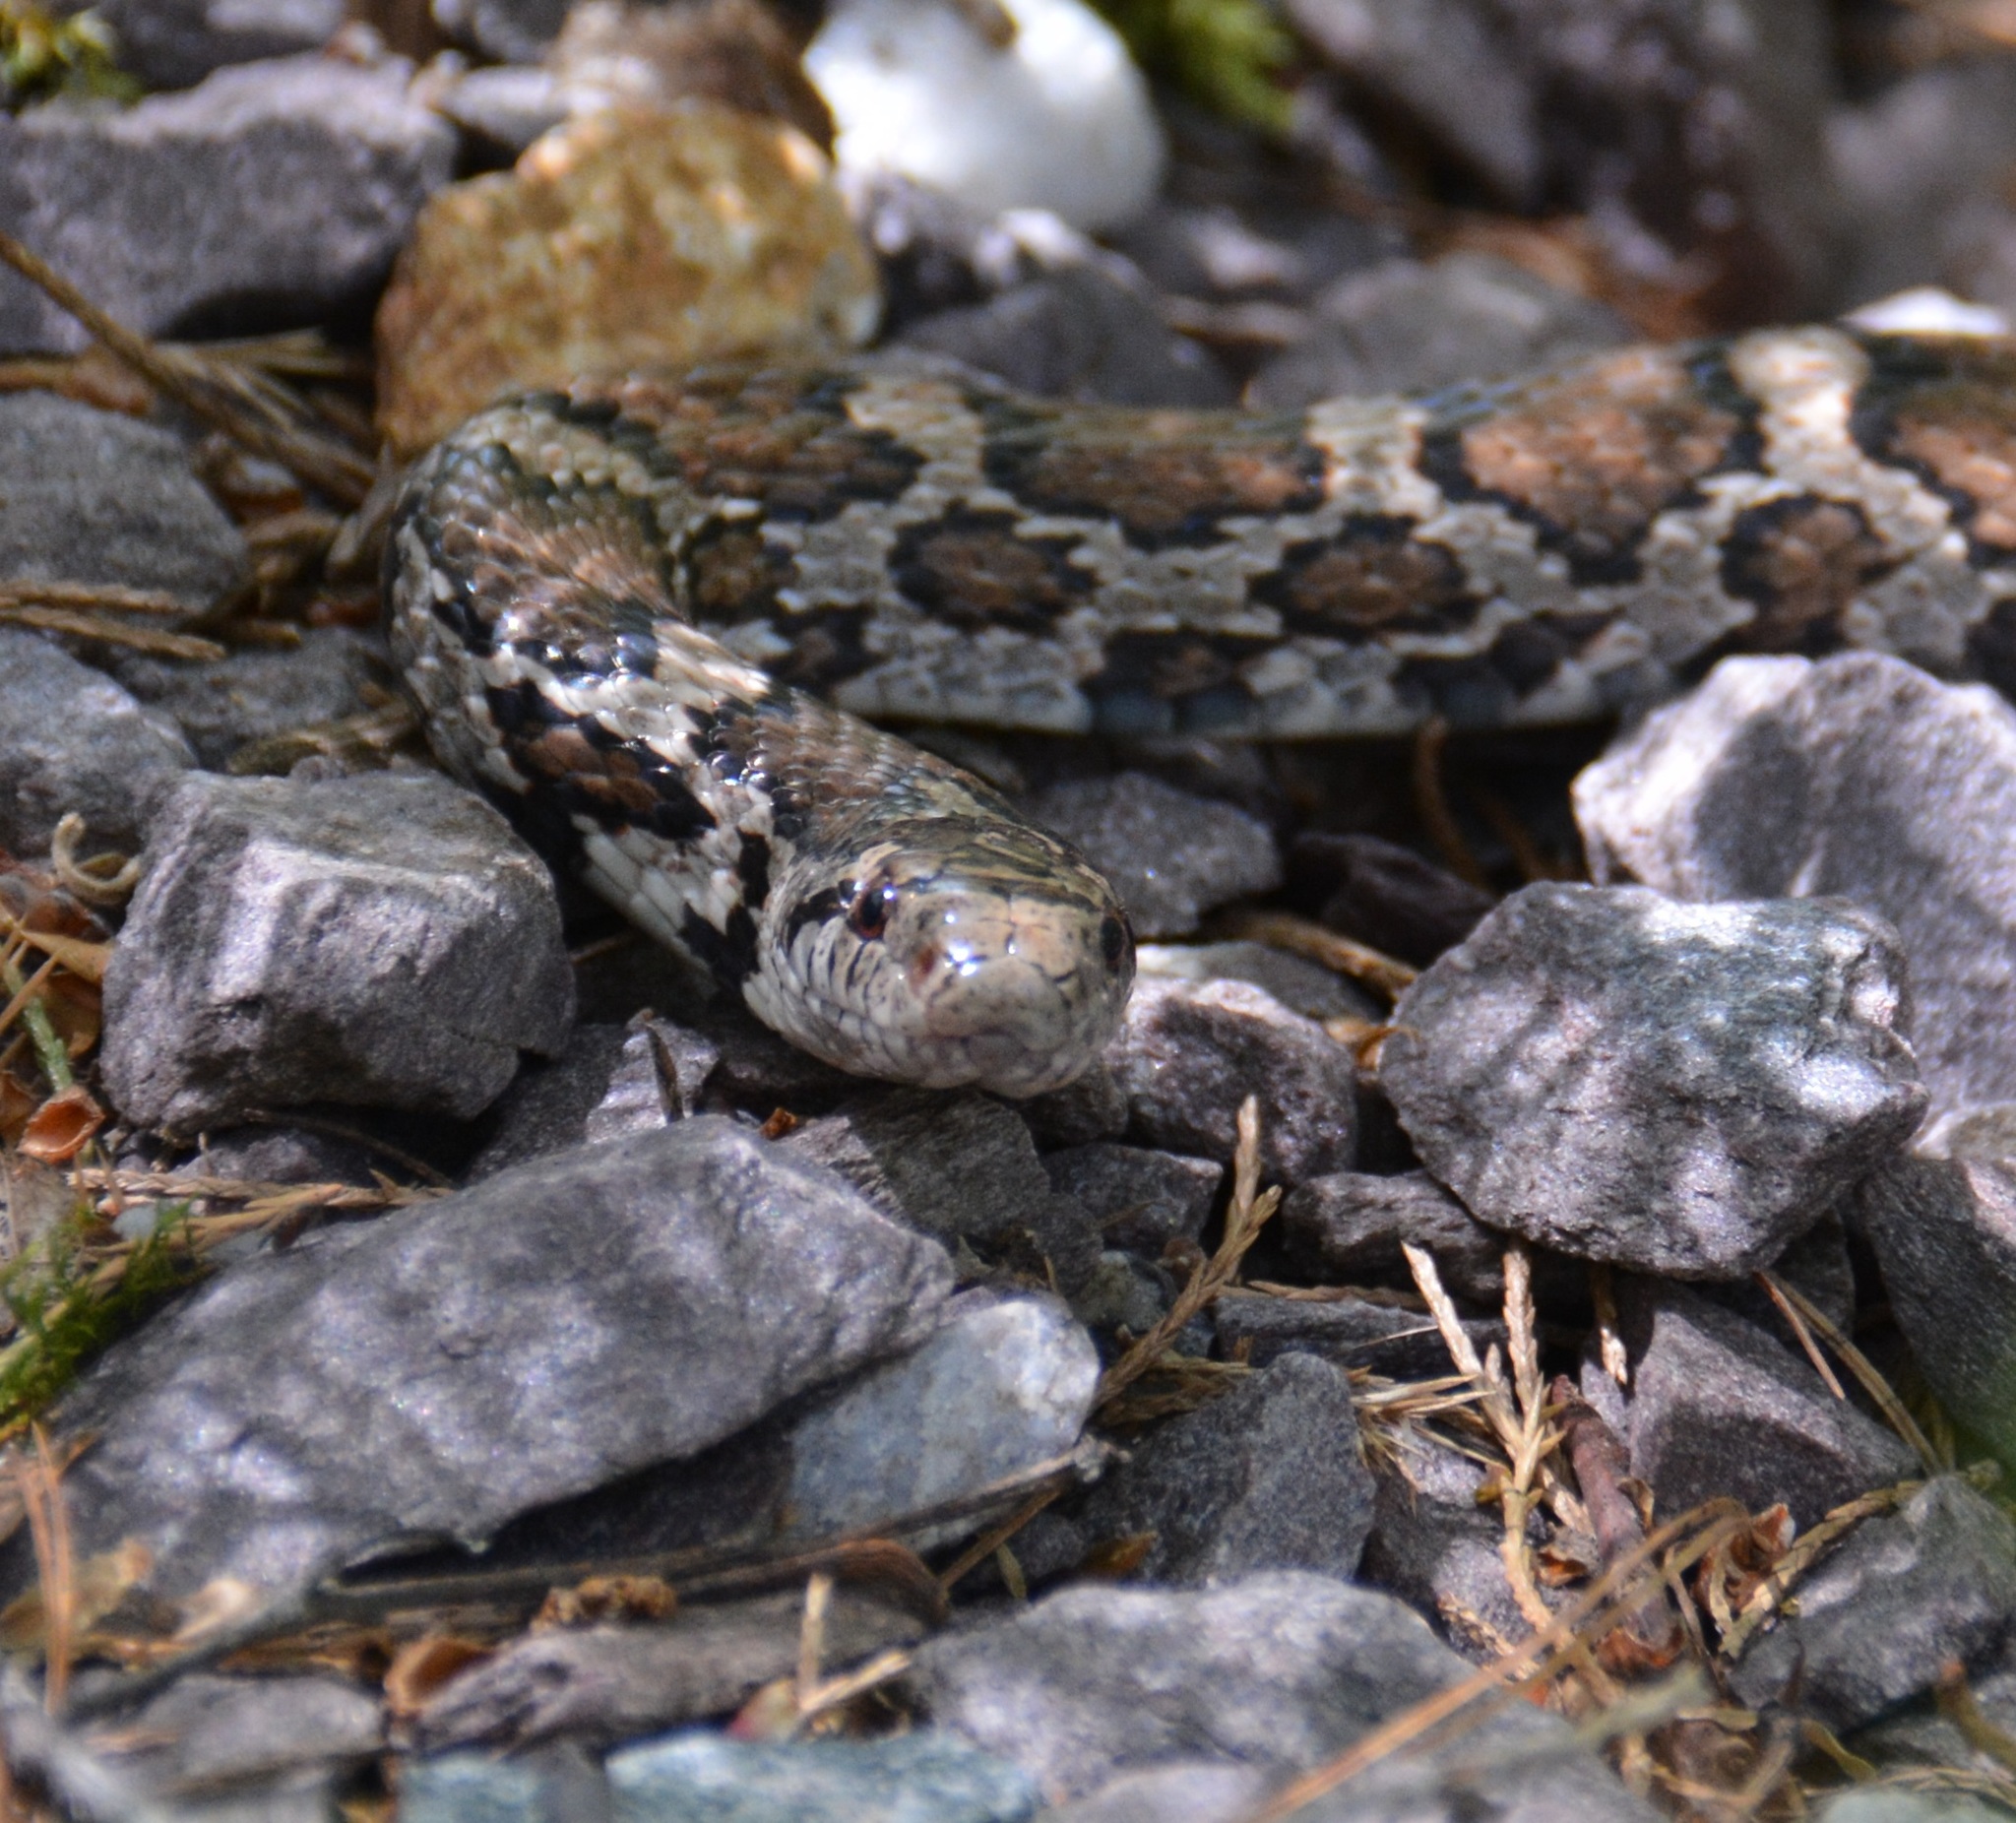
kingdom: Animalia
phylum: Chordata
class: Squamata
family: Colubridae
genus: Lampropeltis
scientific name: Lampropeltis triangulum
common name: Eastern milksnake
